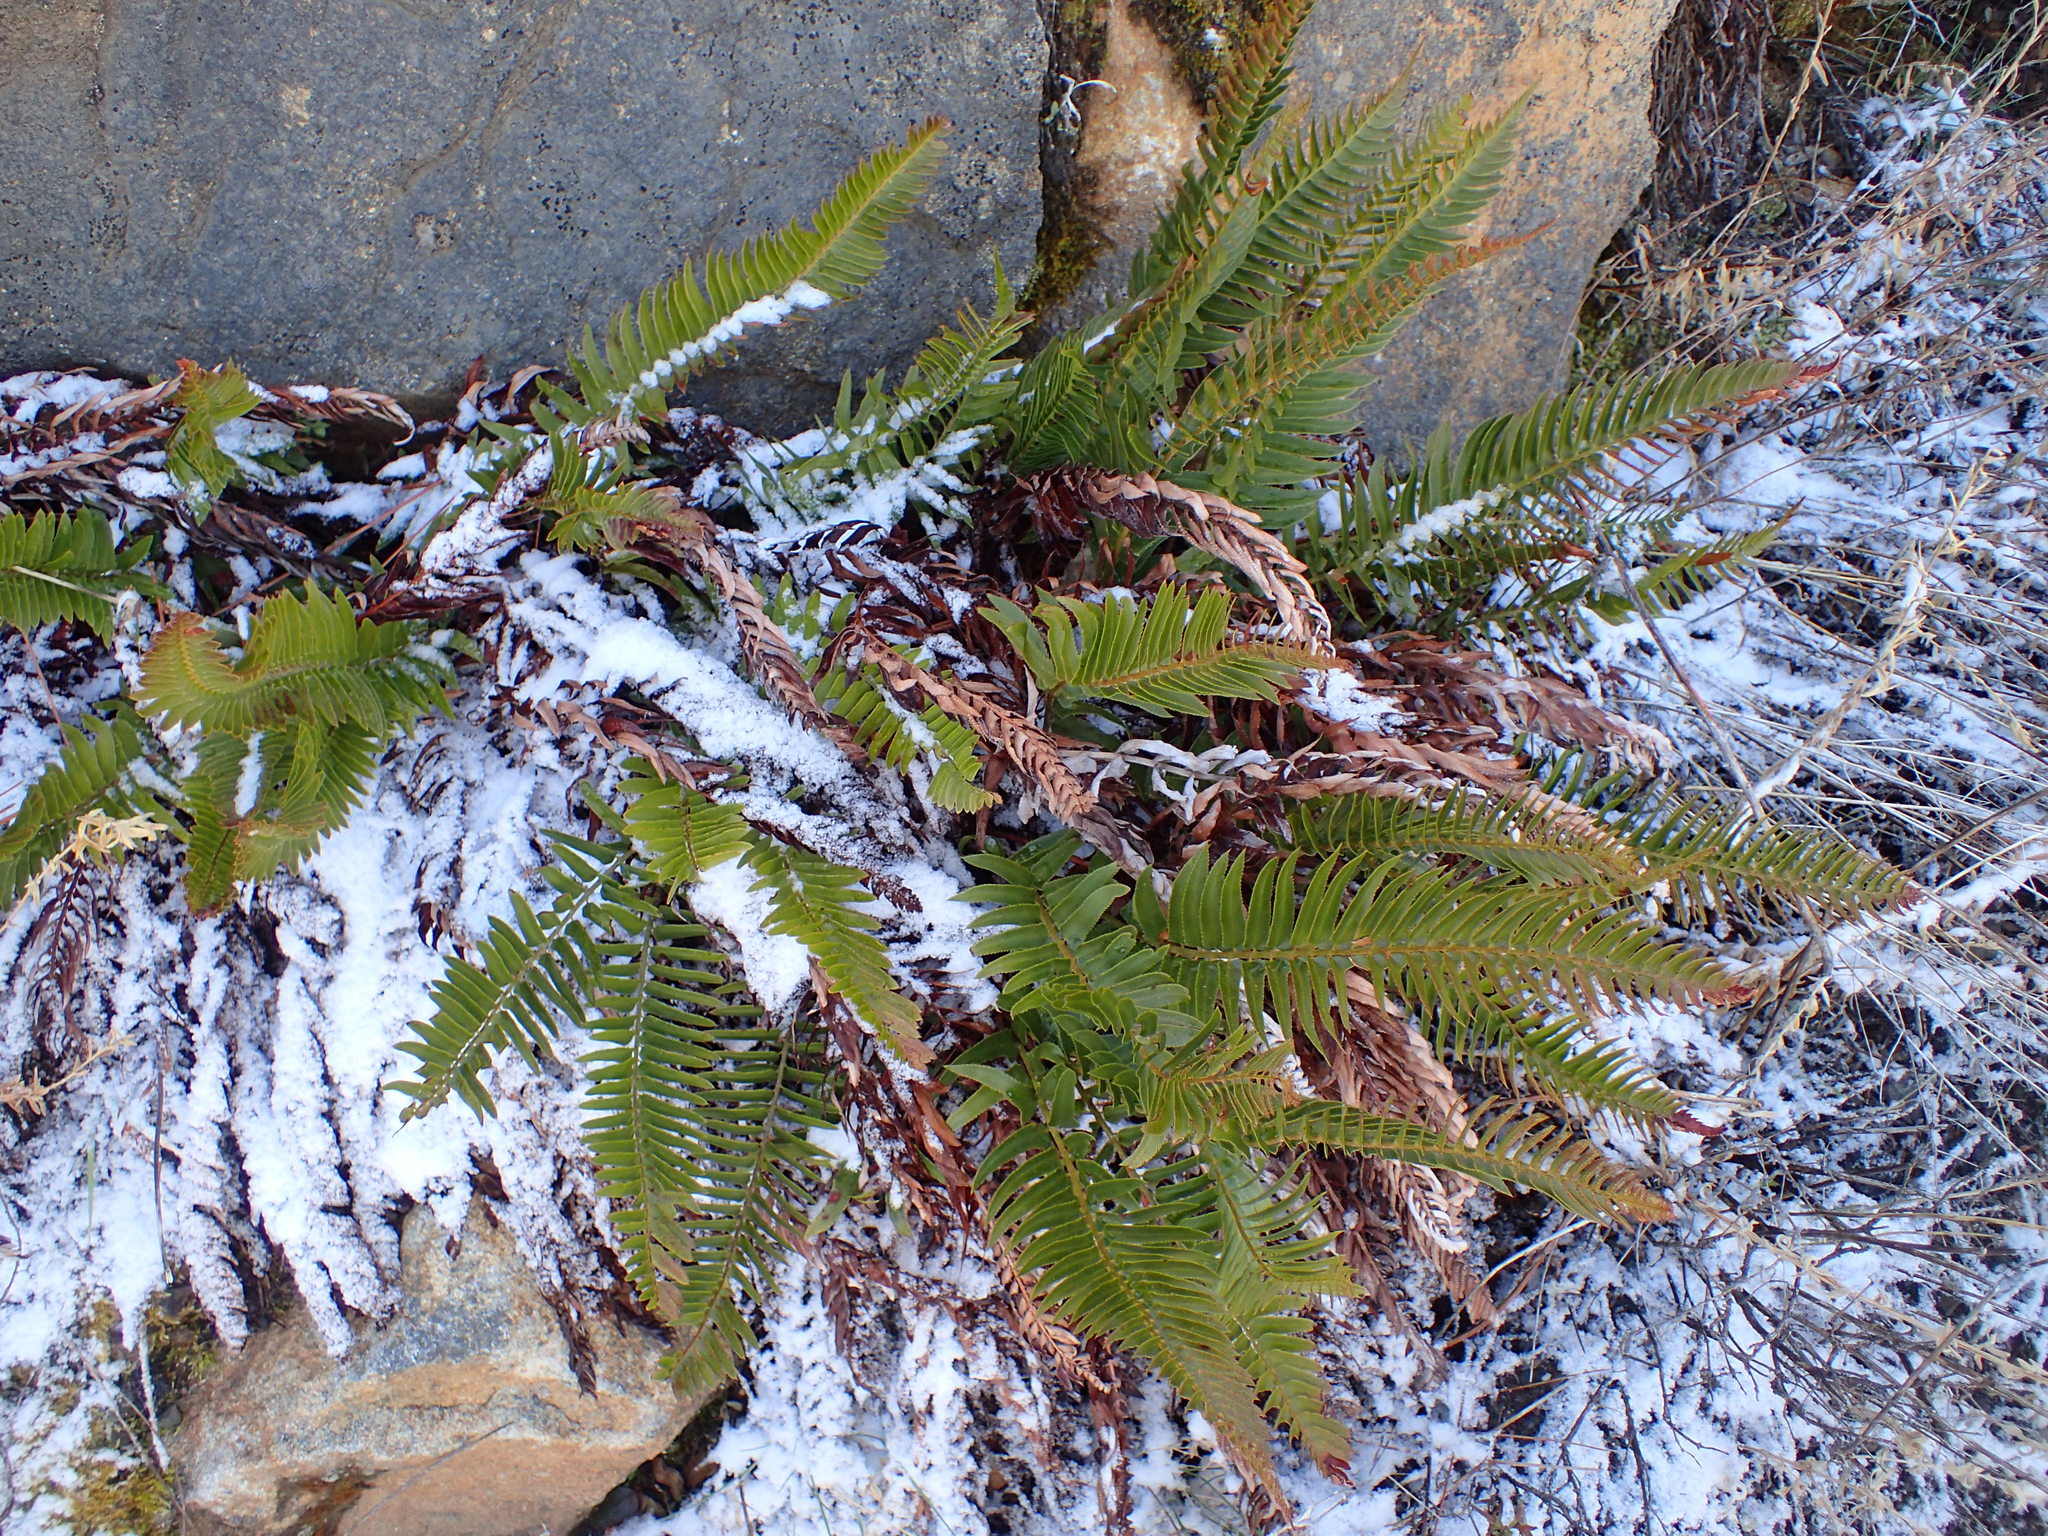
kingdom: Plantae
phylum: Tracheophyta
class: Polypodiopsida
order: Polypodiales
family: Dryopteridaceae
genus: Polystichum
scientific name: Polystichum munitum
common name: Western sword-fern
